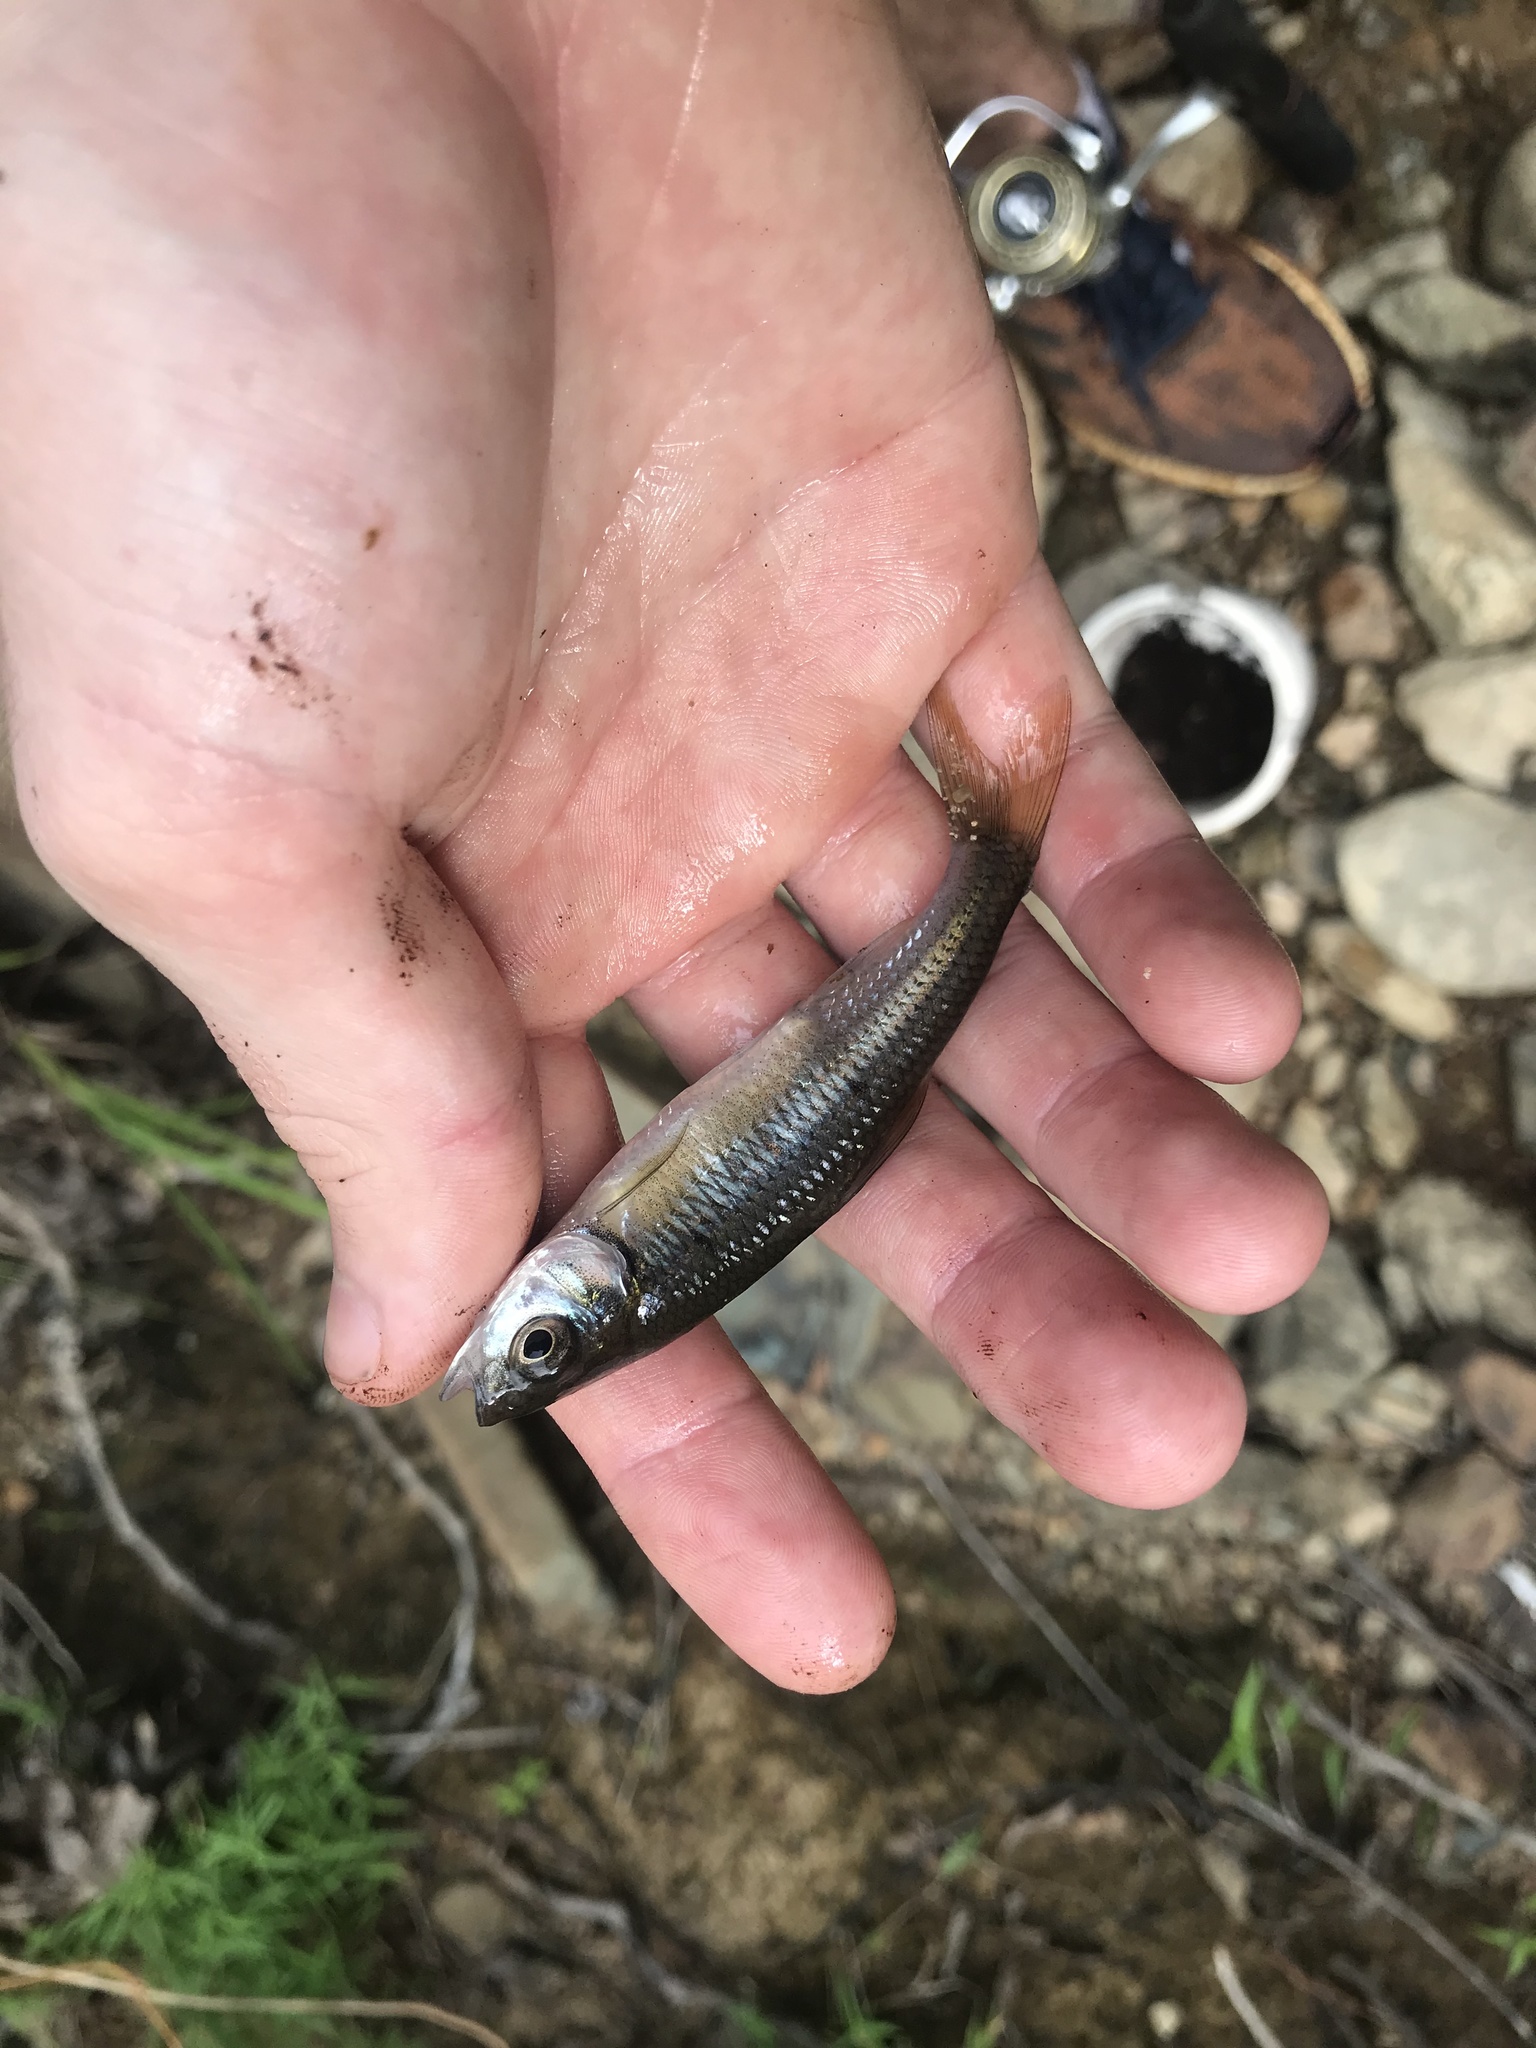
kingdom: Animalia
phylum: Chordata
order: Cypriniformes
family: Cyprinidae
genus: Luxilus
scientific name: Luxilus albeolus
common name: White shiner
